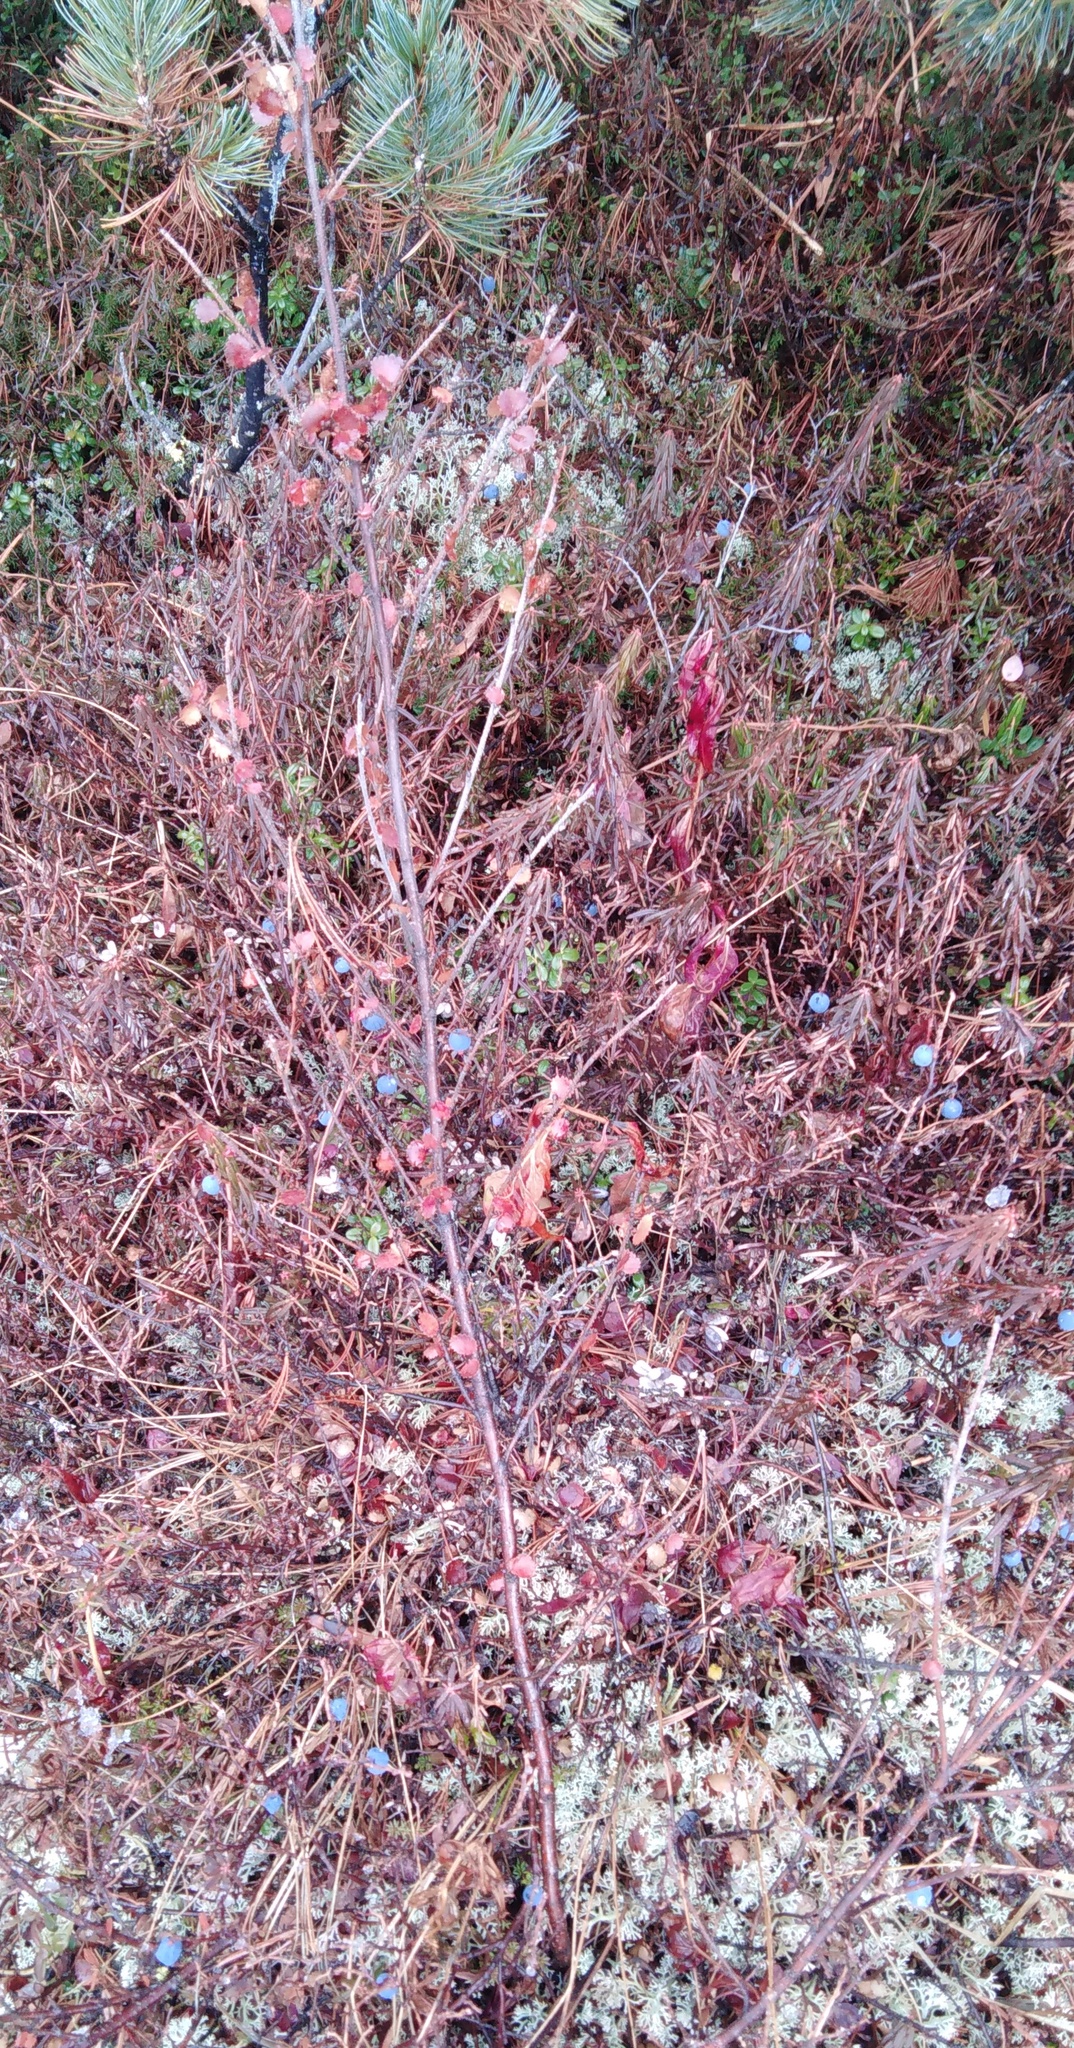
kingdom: Plantae
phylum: Tracheophyta
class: Magnoliopsida
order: Fagales
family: Betulaceae
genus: Betula
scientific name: Betula fruticosa
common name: Japanese bog birch
